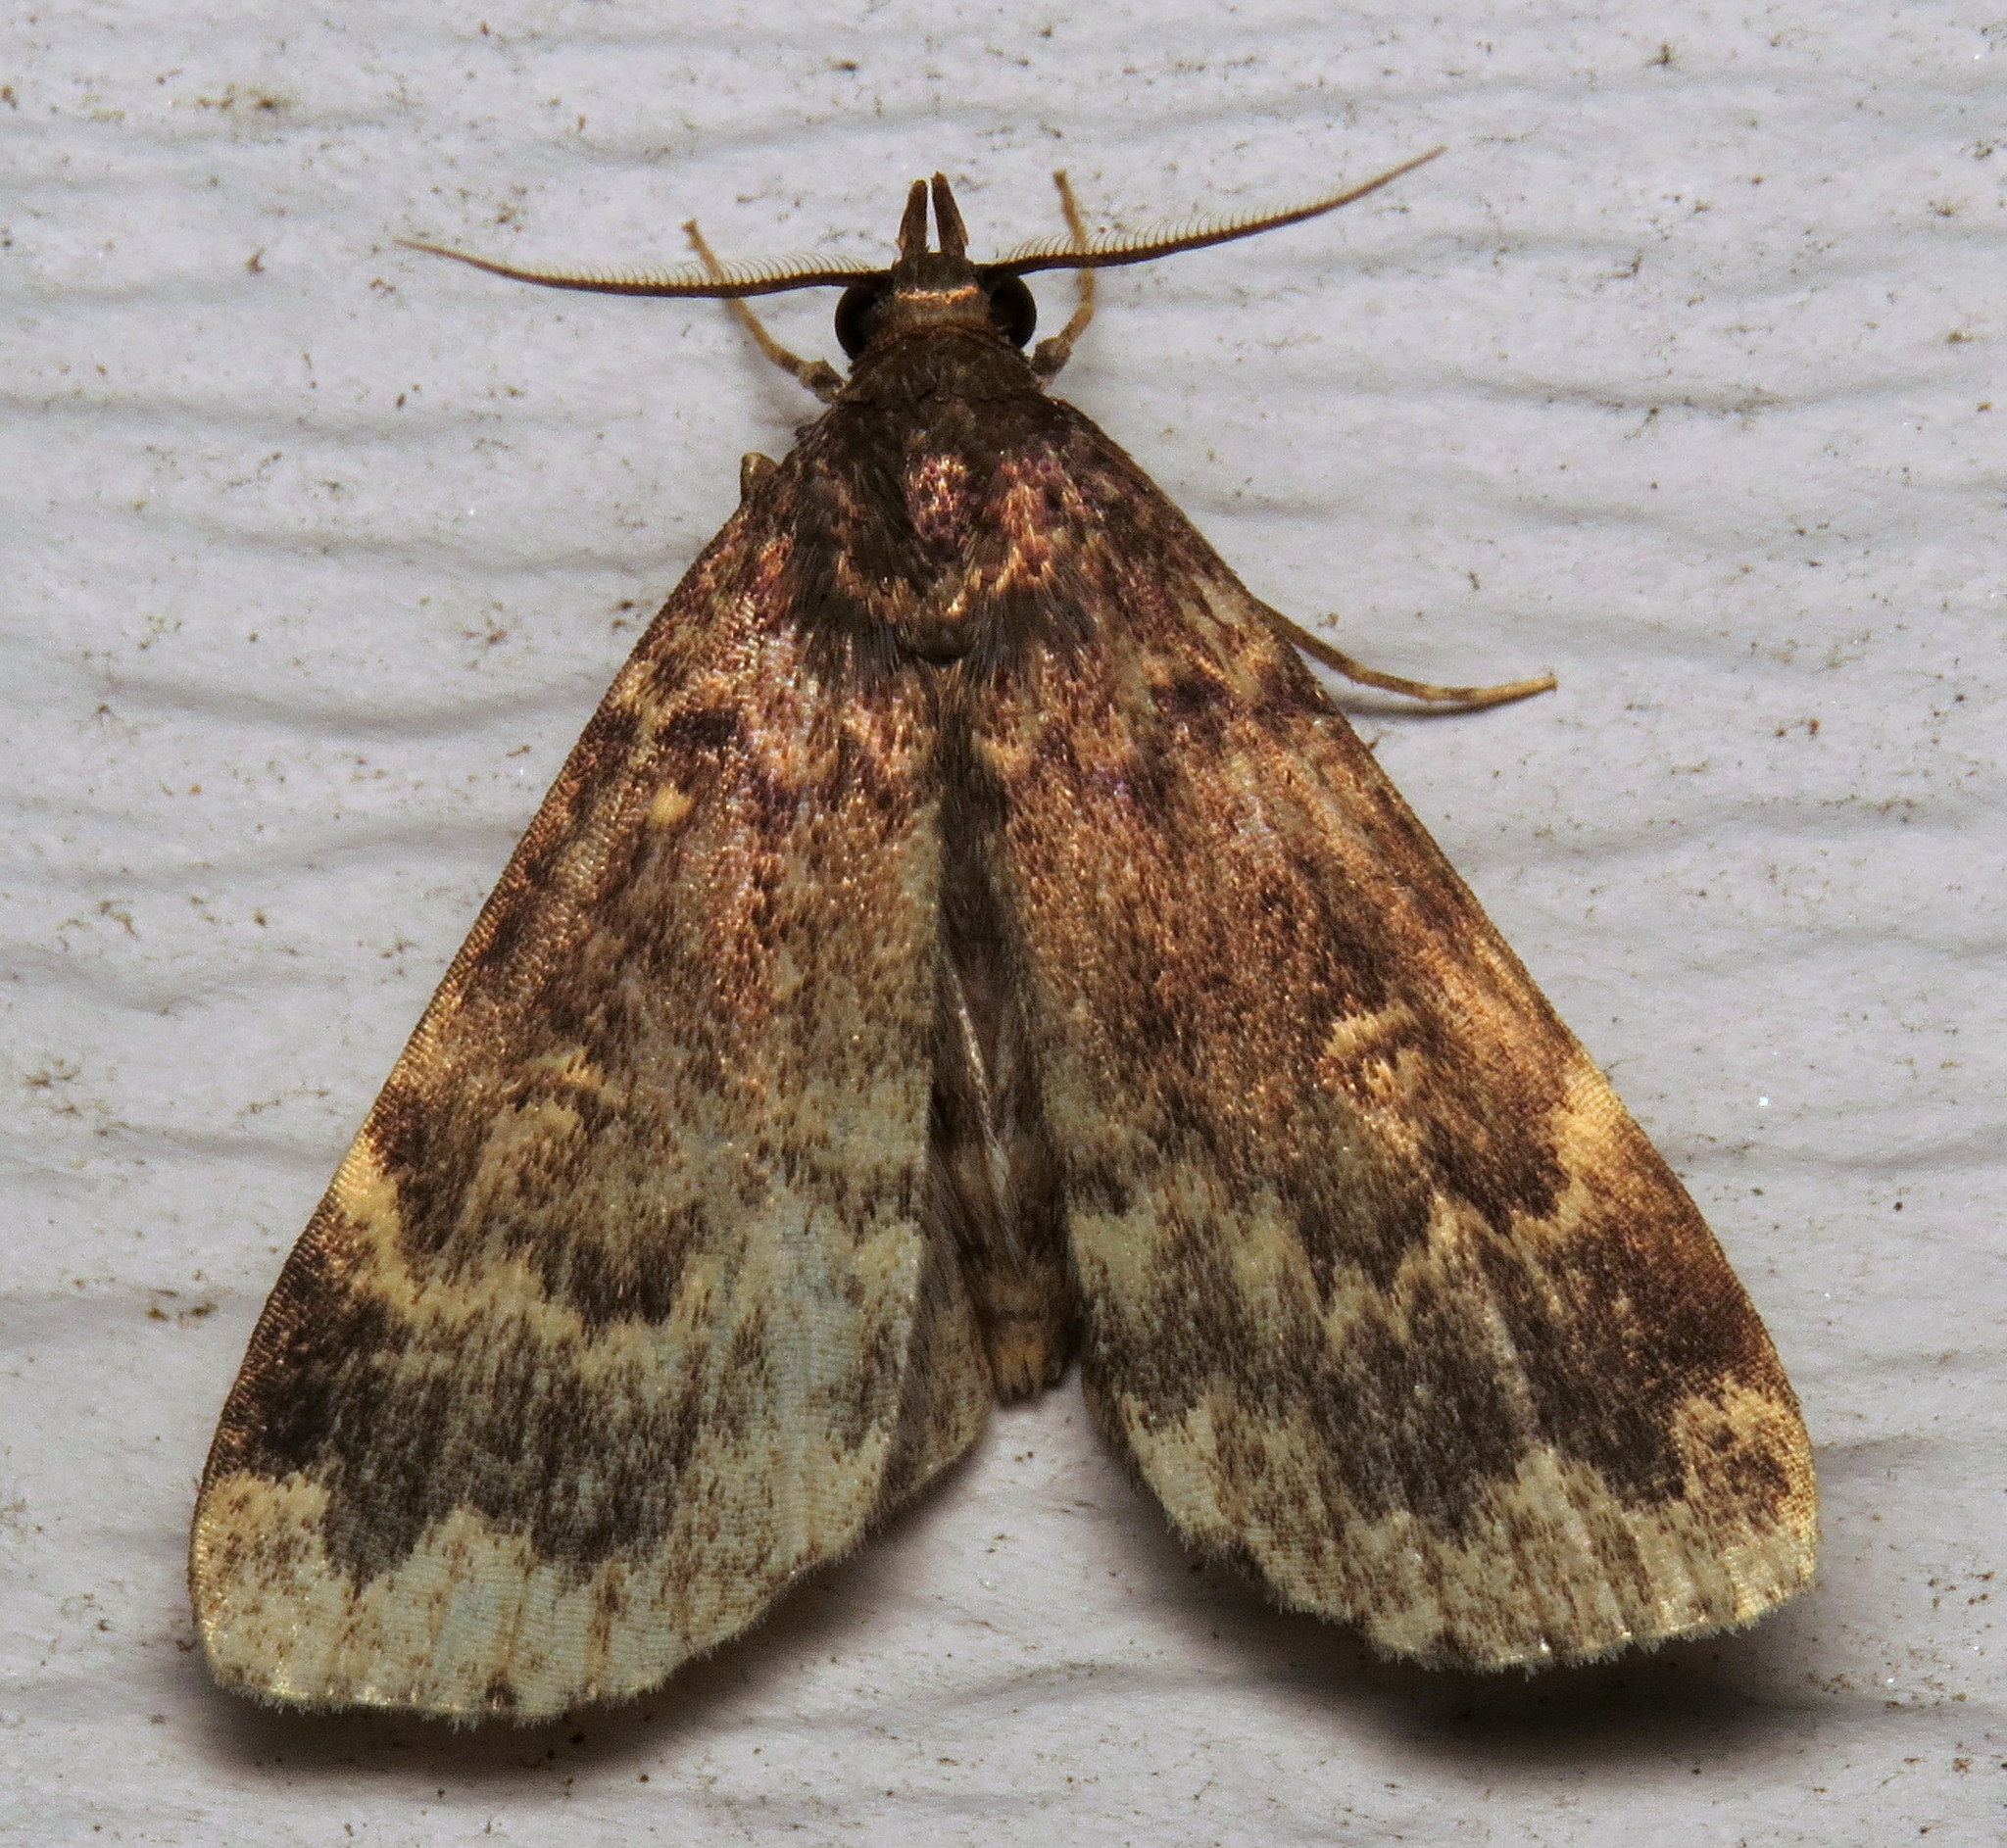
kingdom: Animalia
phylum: Arthropoda
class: Insecta
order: Lepidoptera
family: Erebidae
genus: Idia
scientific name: Idia lubricalis
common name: Twin-striped tabby
